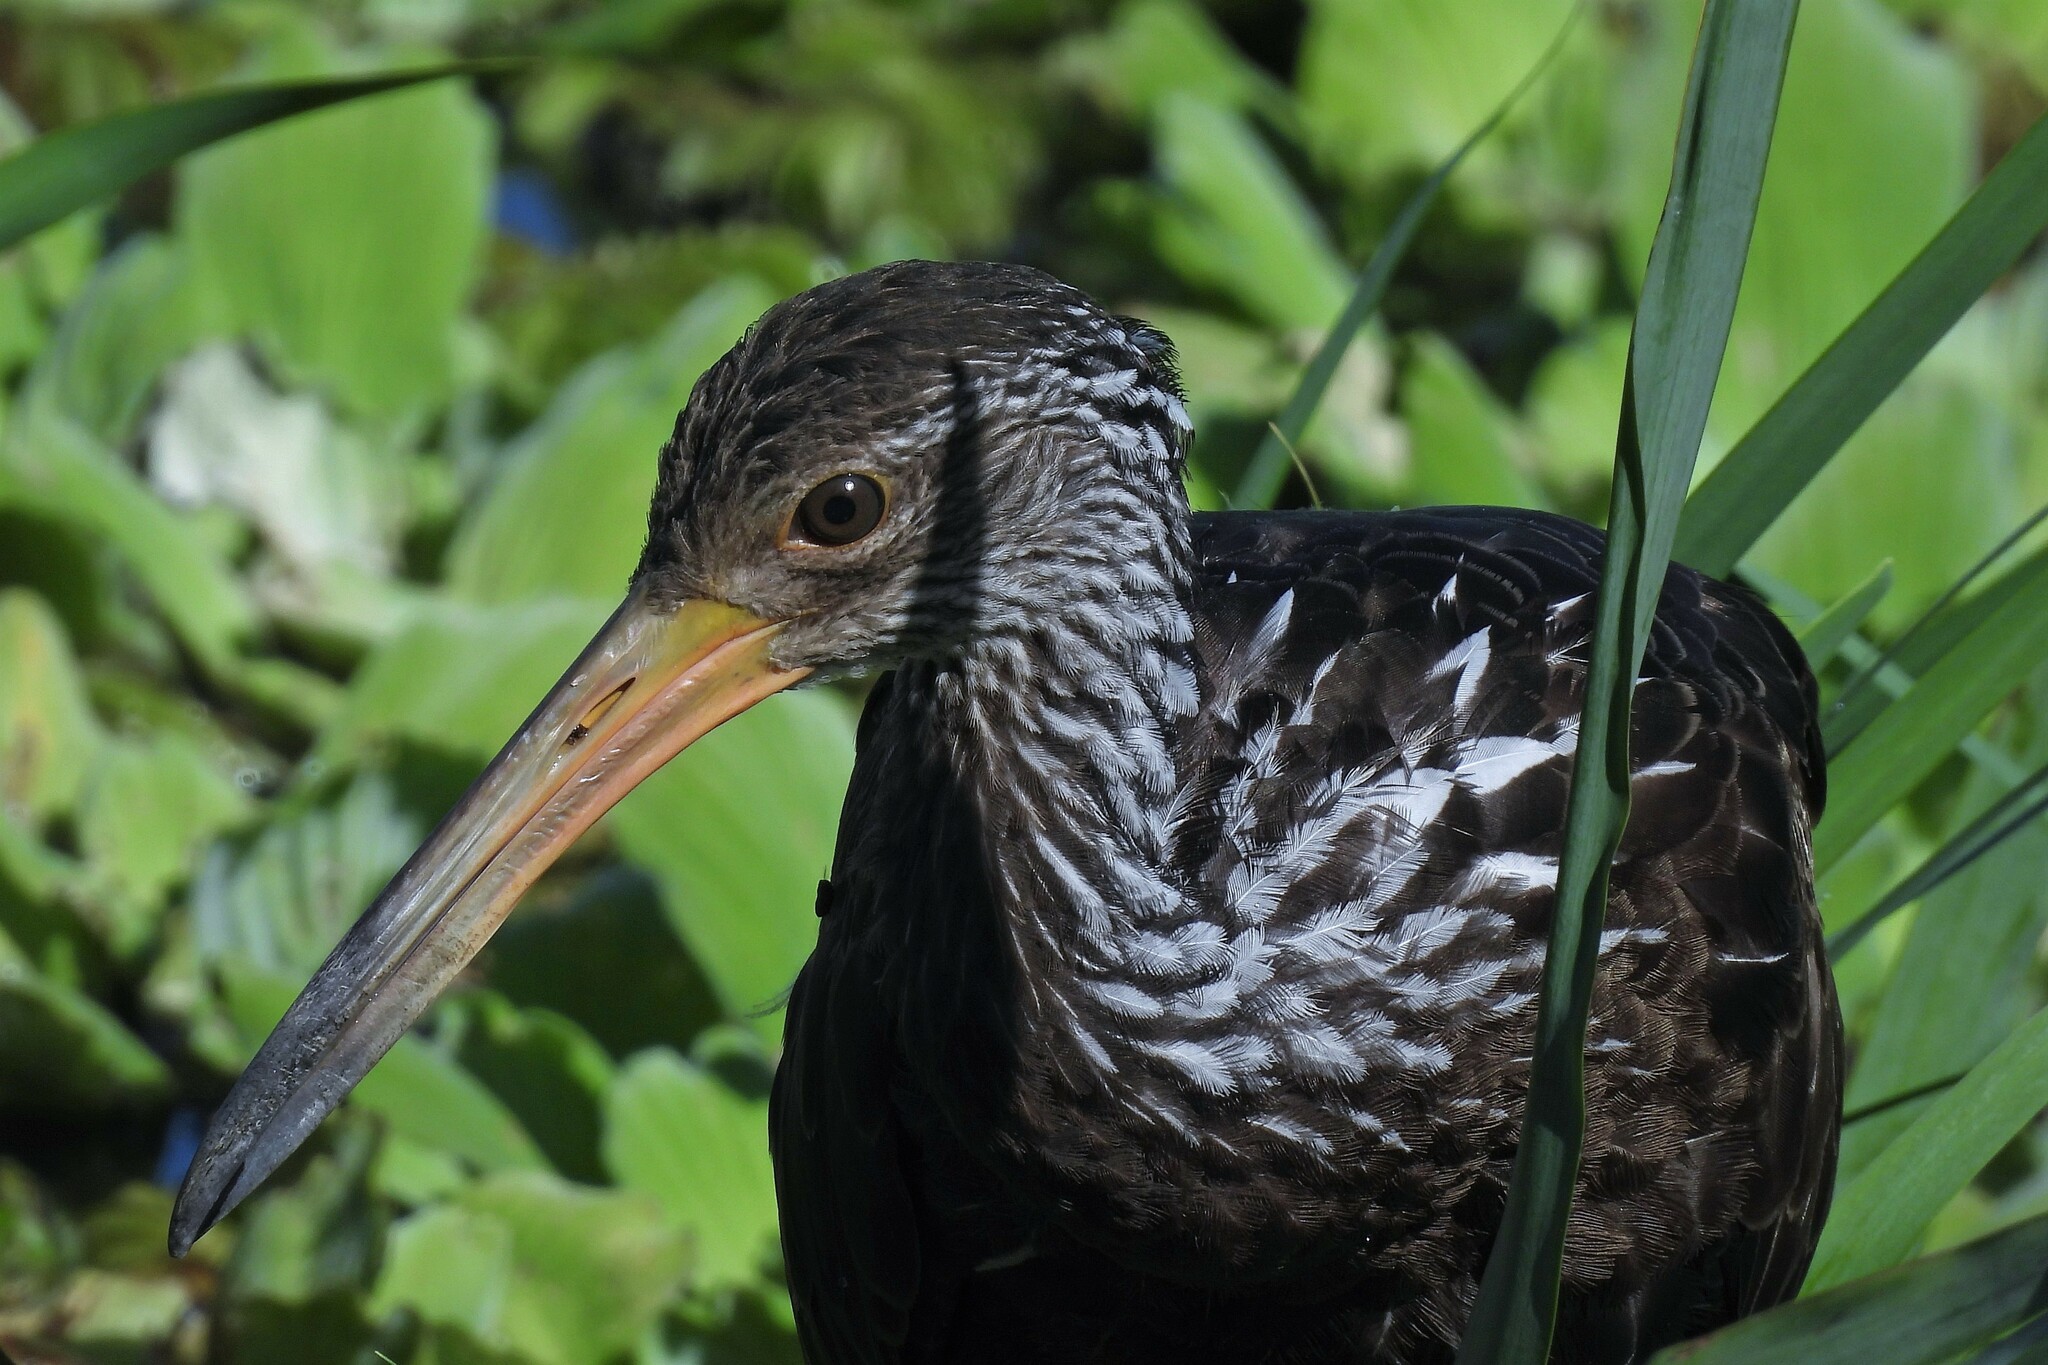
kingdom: Animalia
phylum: Chordata
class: Aves
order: Gruiformes
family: Aramidae
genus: Aramus
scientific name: Aramus guarauna
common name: Limpkin
